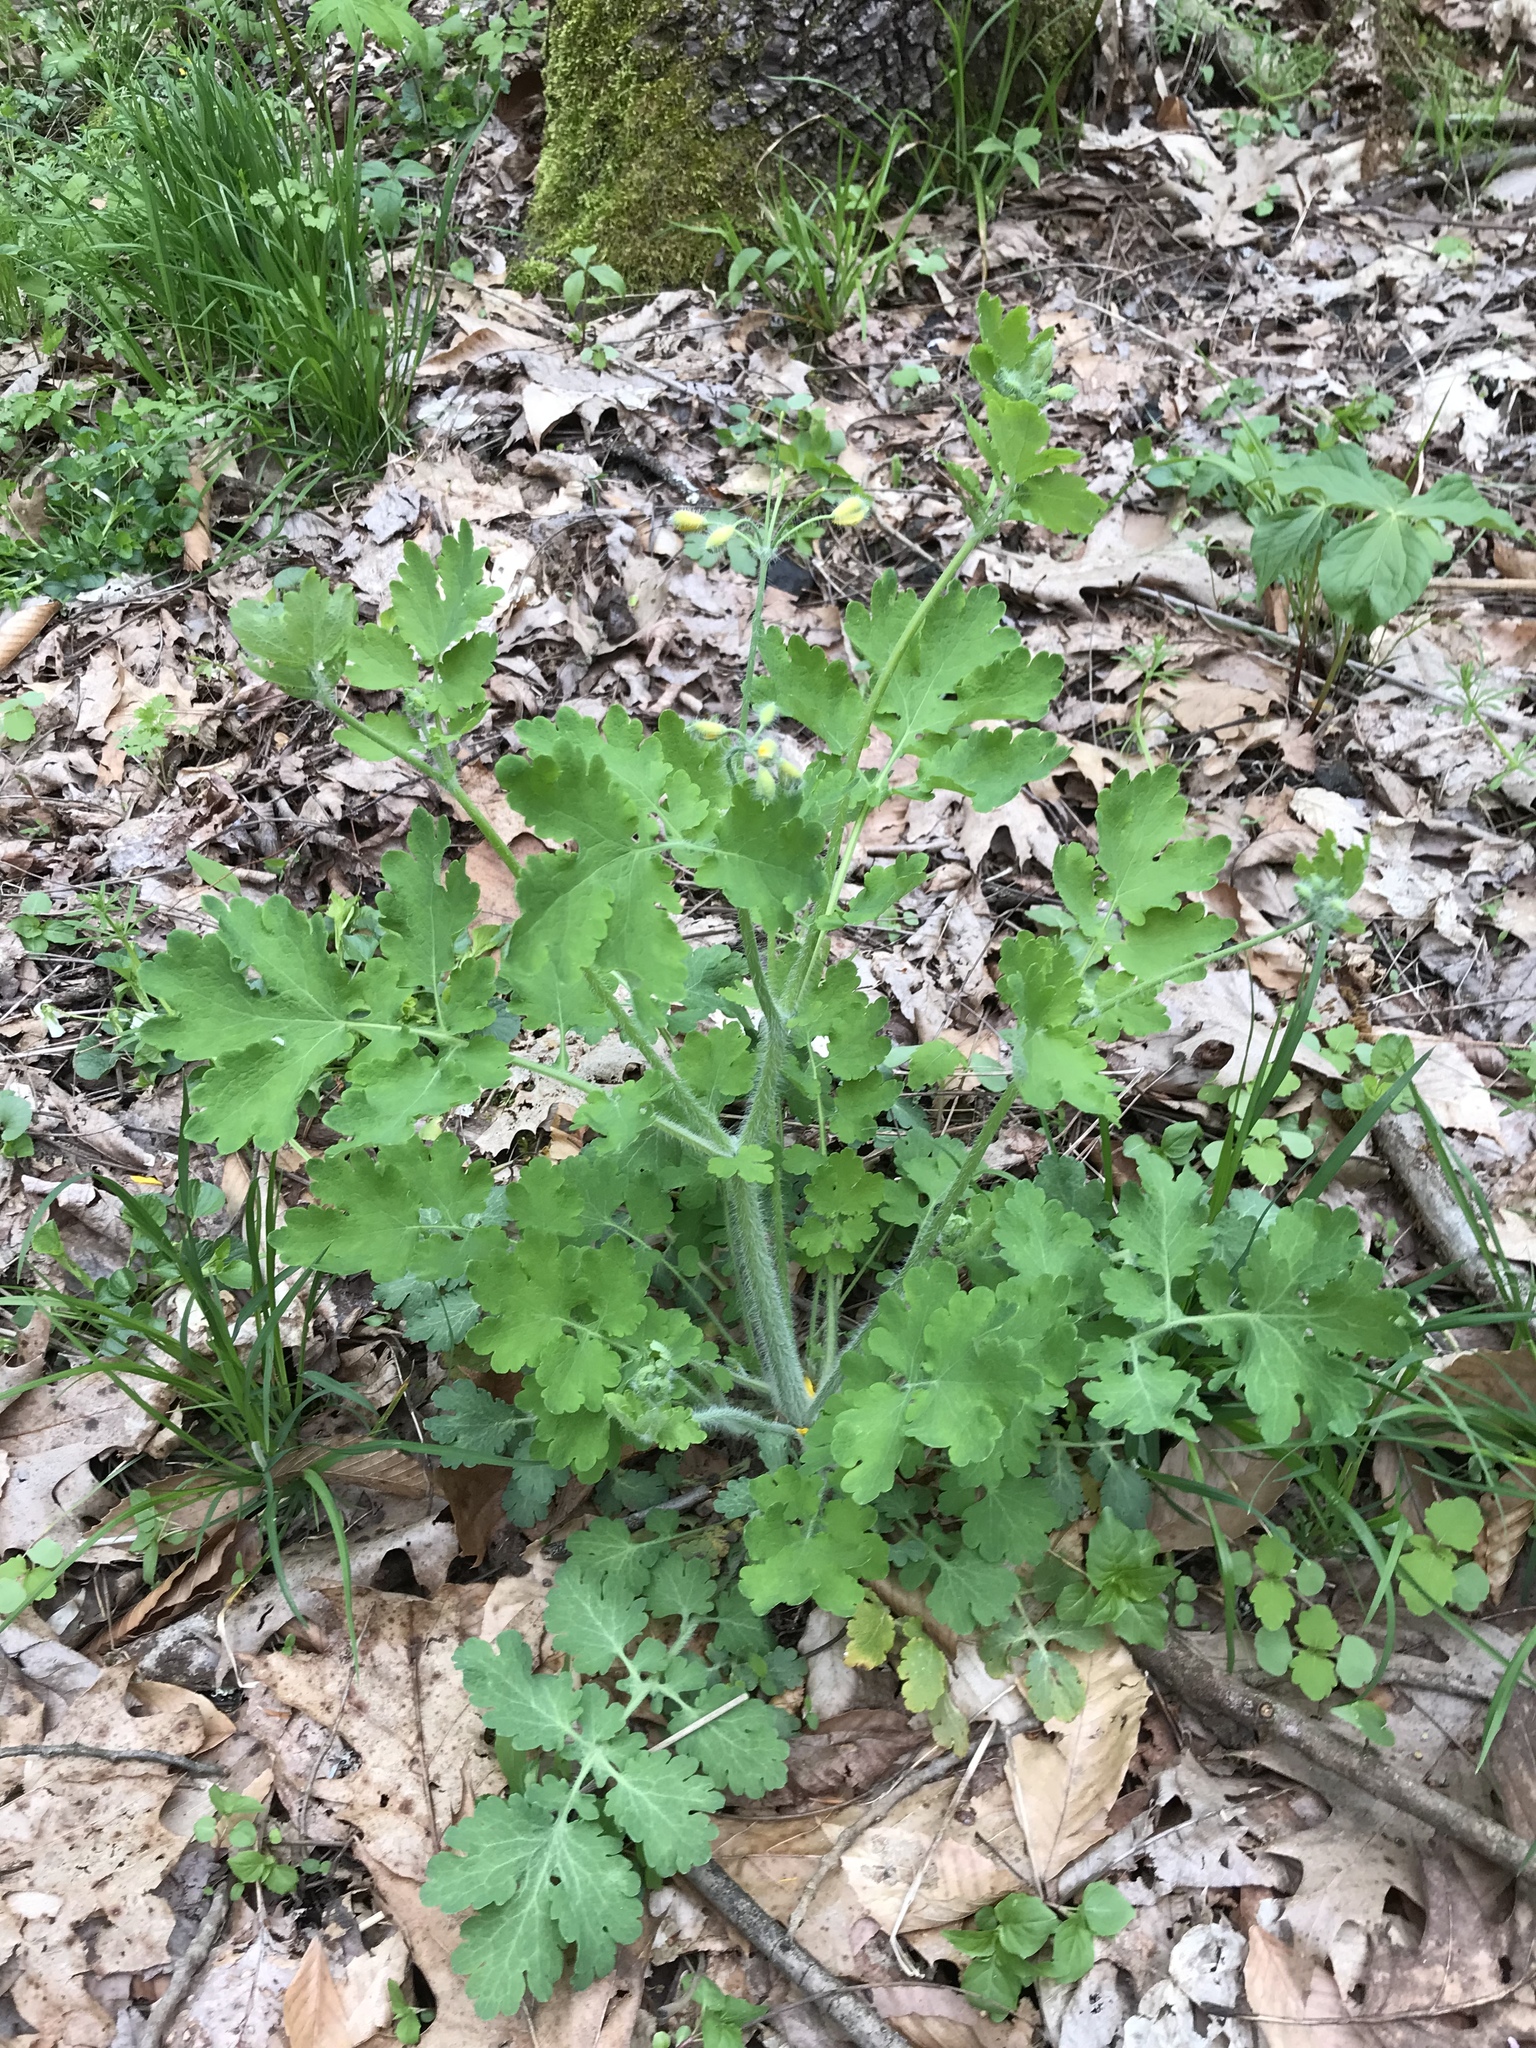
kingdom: Plantae
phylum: Tracheophyta
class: Magnoliopsida
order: Ranunculales
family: Papaveraceae
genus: Chelidonium
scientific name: Chelidonium majus
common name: Greater celandine
